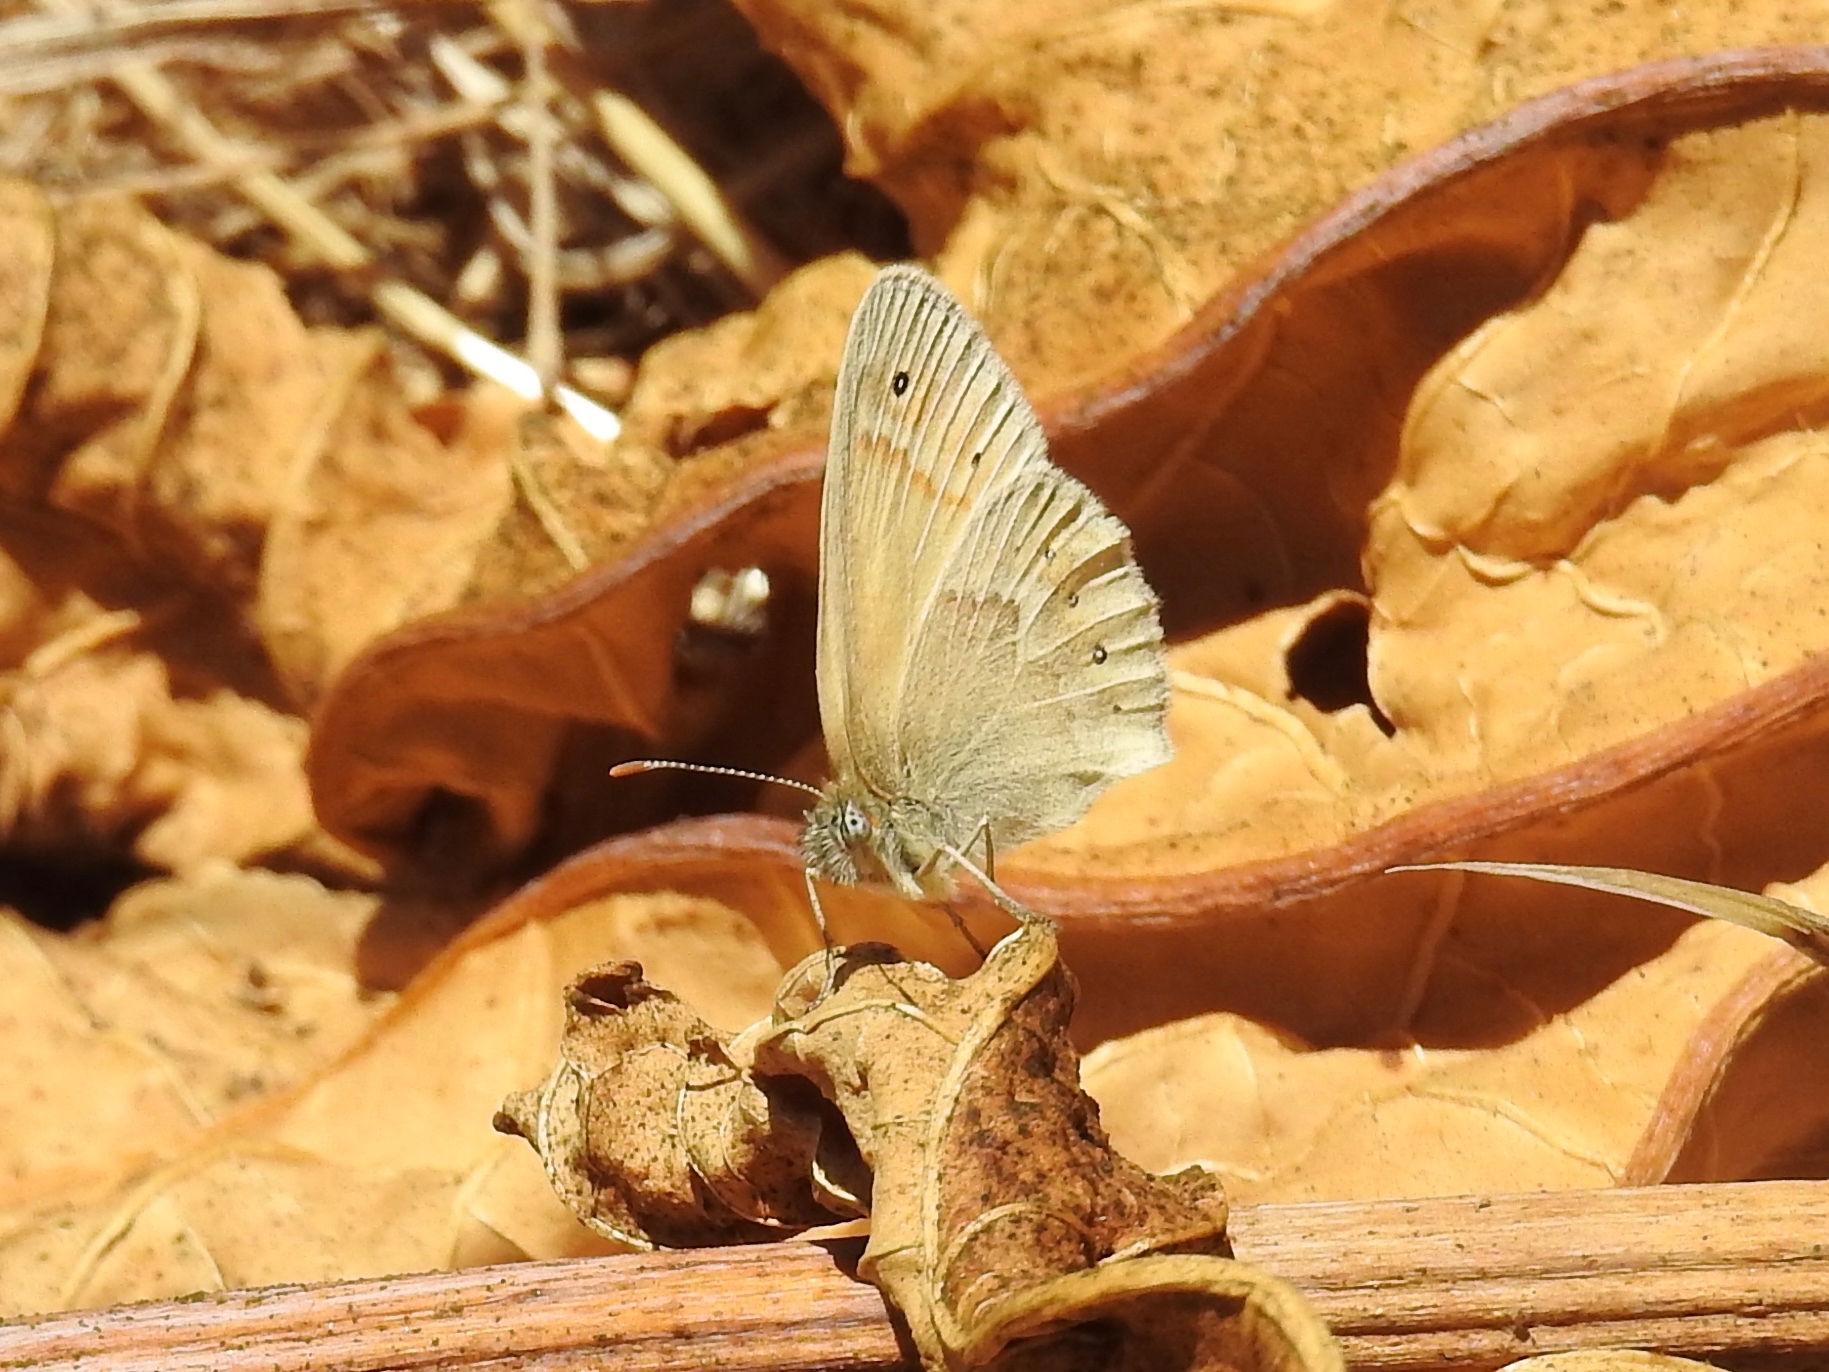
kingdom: Animalia
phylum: Arthropoda
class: Insecta
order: Lepidoptera
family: Nymphalidae
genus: Coenonympha
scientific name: Coenonympha california
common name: Common ringlet
